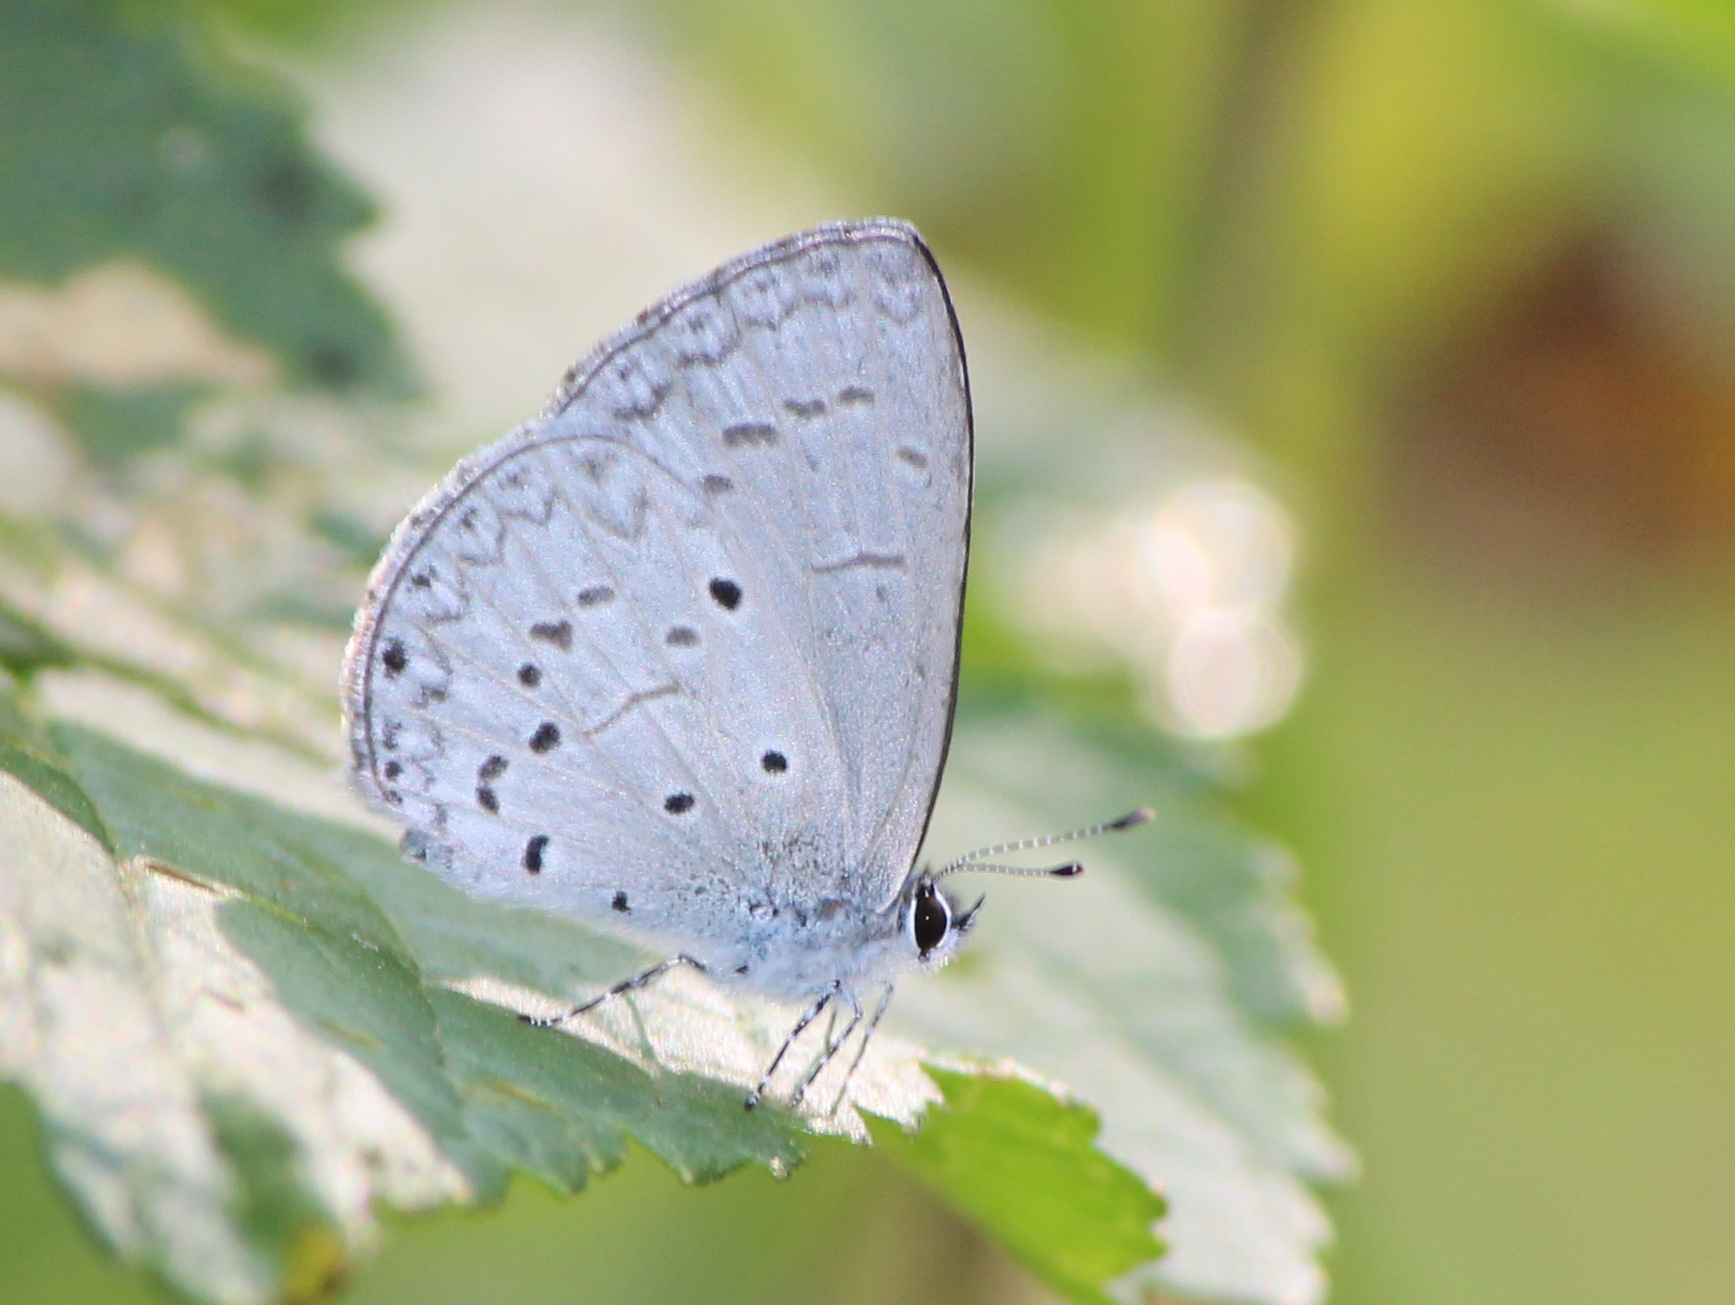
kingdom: Animalia
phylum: Arthropoda
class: Insecta
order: Lepidoptera
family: Lycaenidae
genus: Celastrina
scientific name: Celastrina lavendularis
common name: Plain hedge blue
